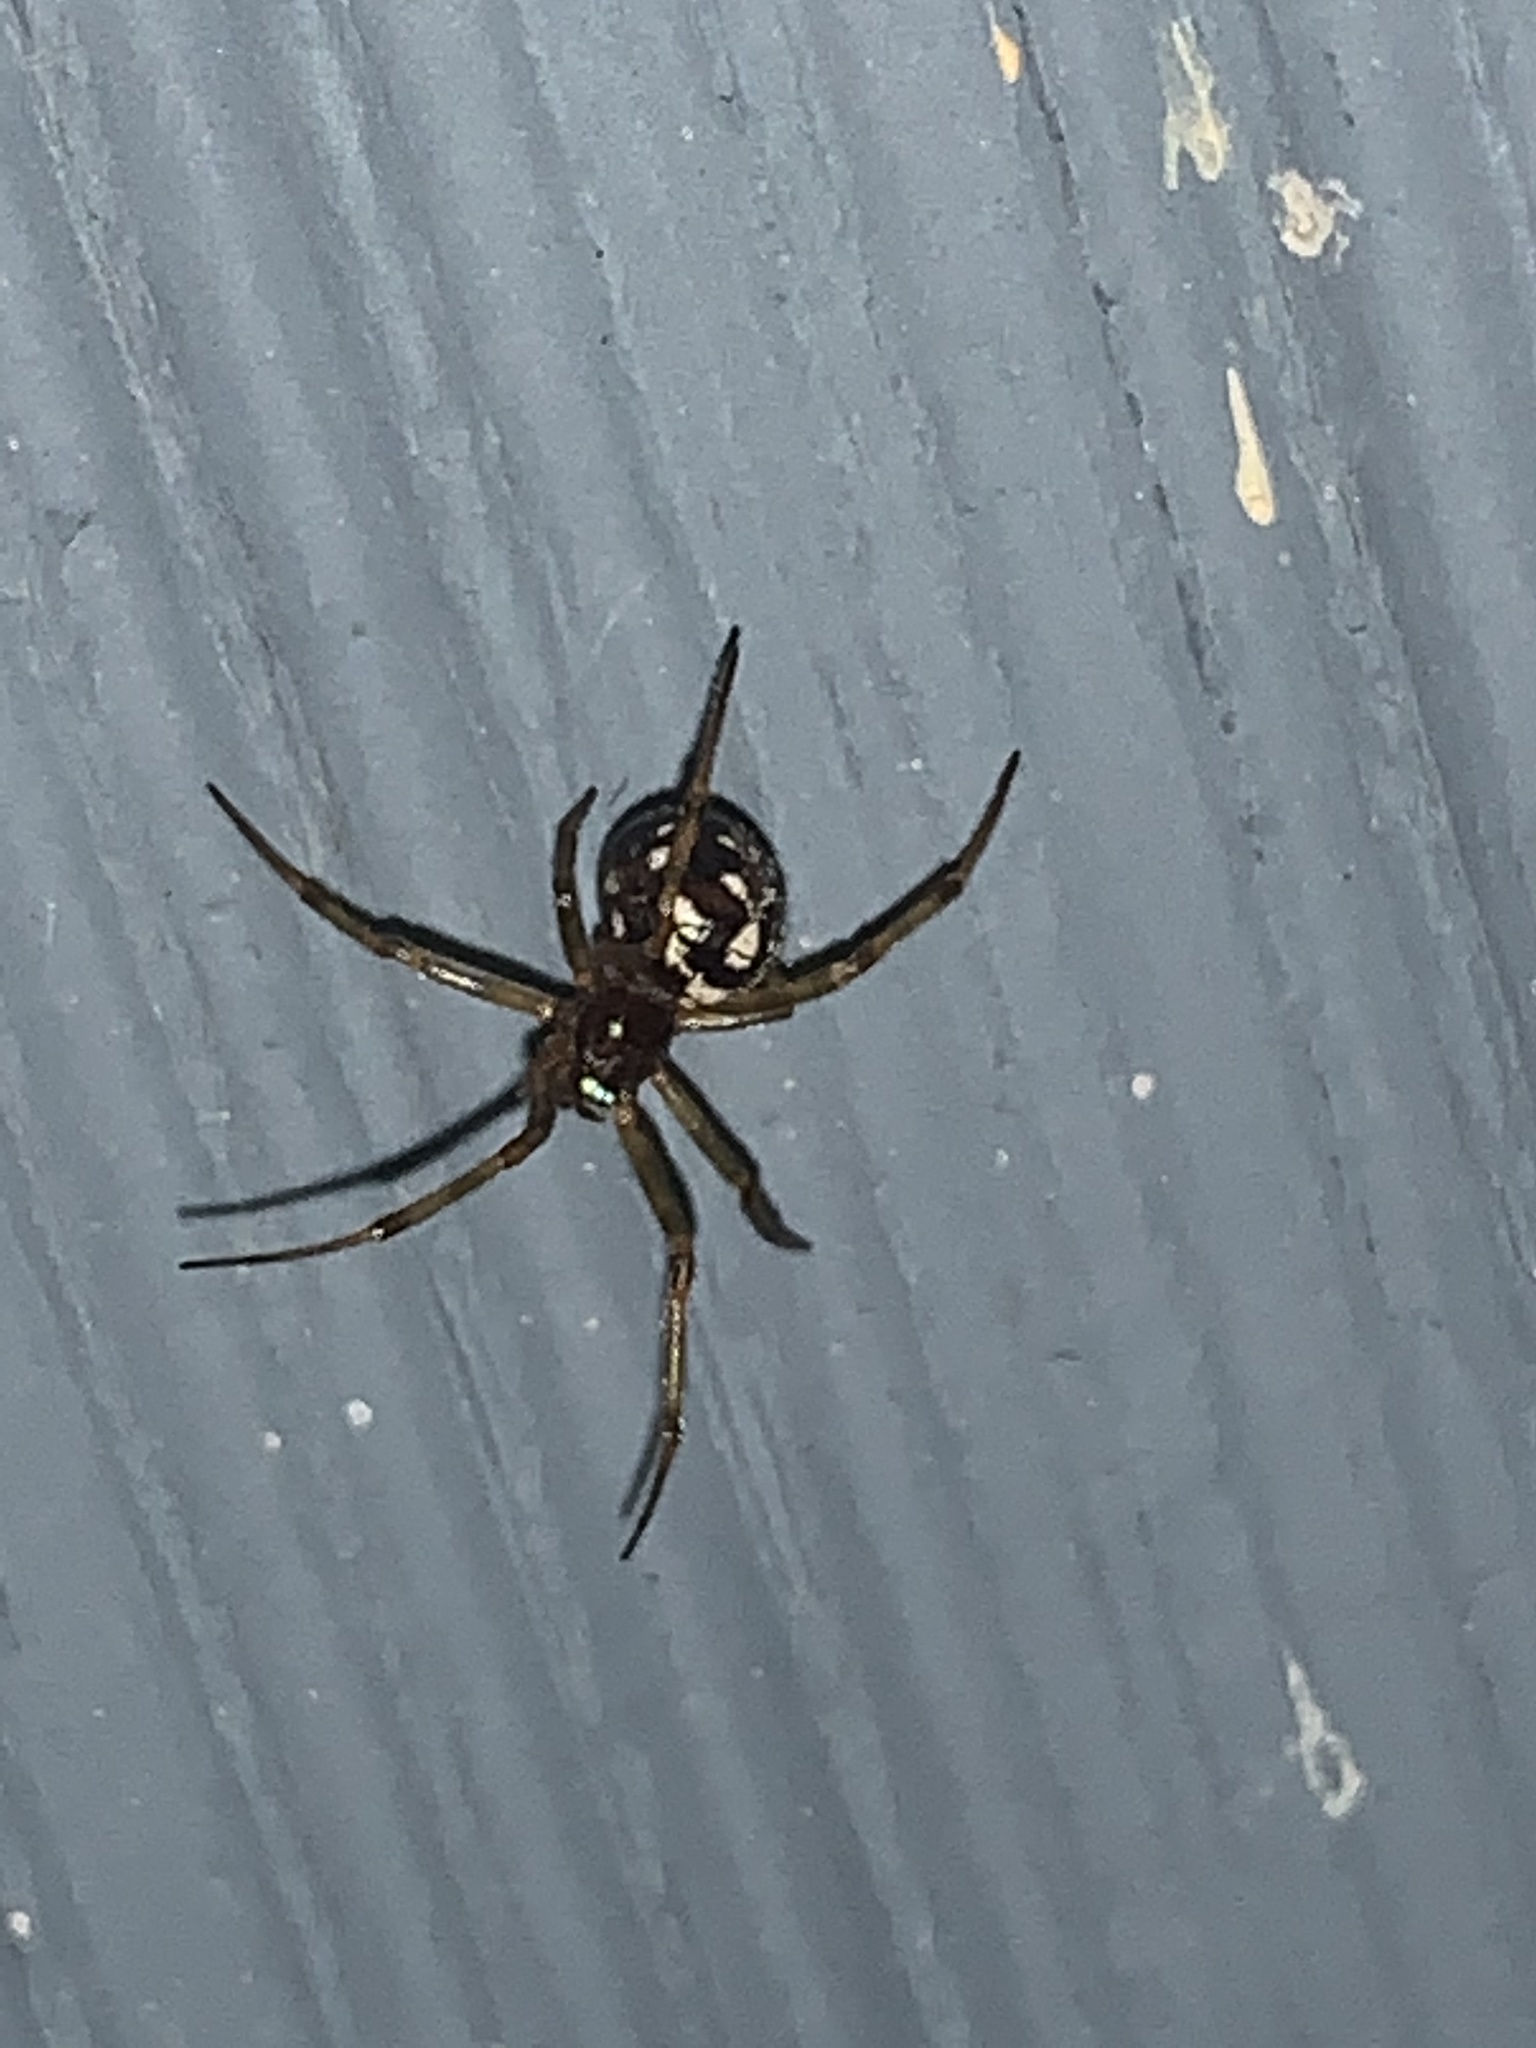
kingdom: Animalia
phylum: Arthropoda
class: Arachnida
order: Araneae
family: Theridiidae
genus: Steatoda
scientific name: Steatoda triangulosa
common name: Triangulate bud spider
